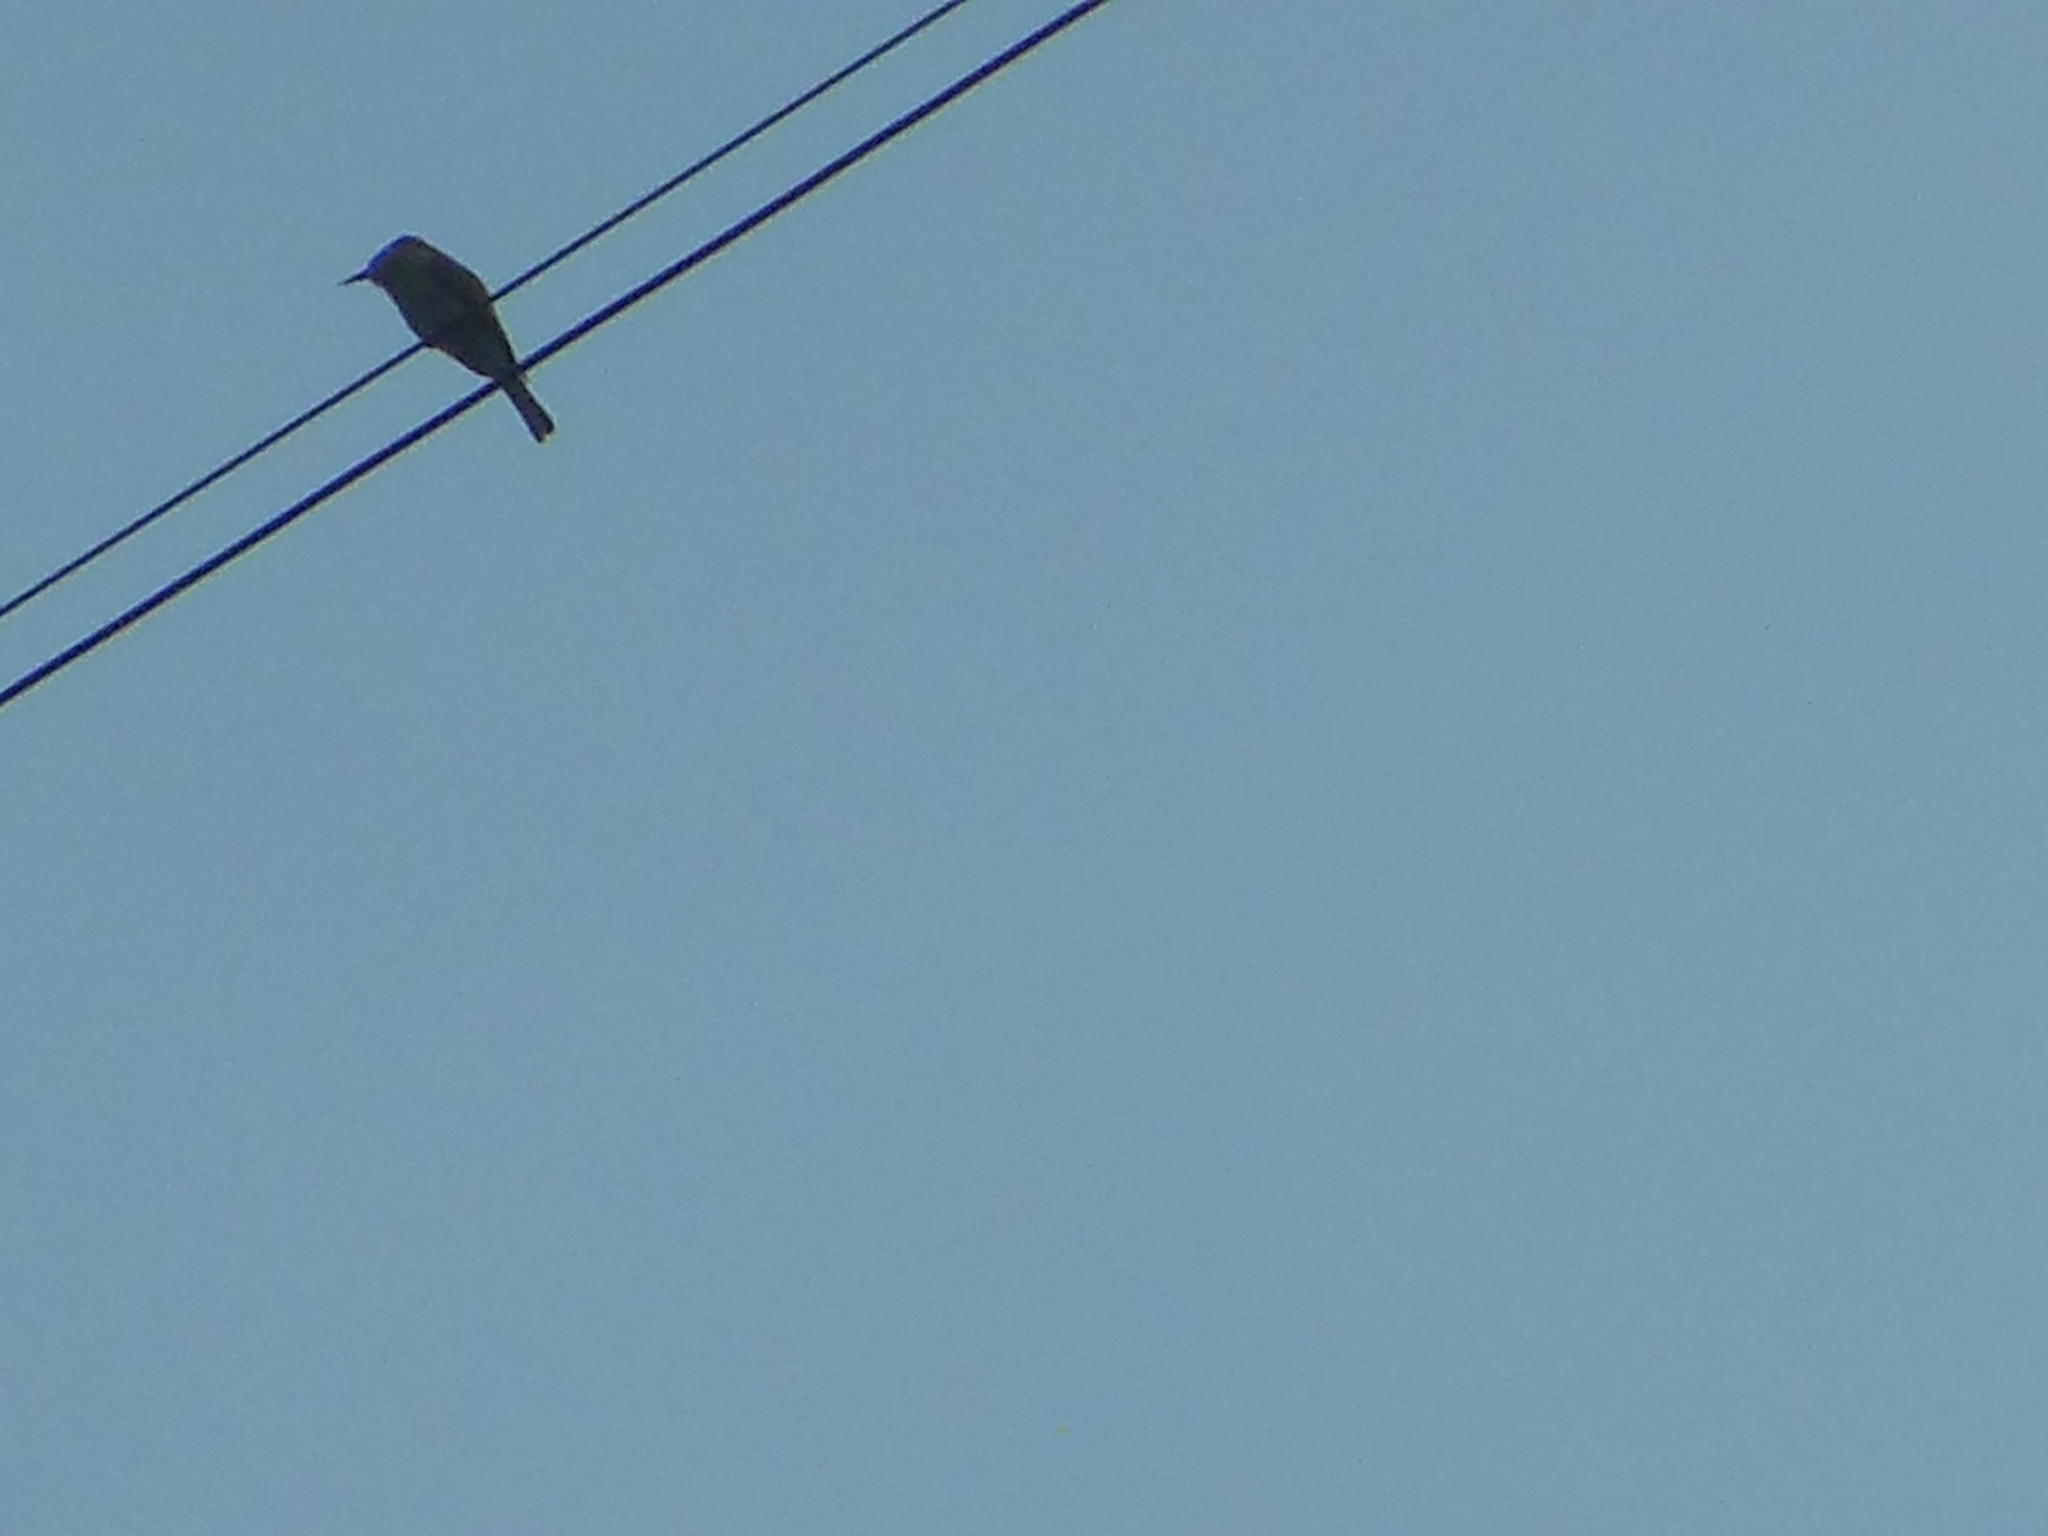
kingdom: Animalia
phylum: Chordata
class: Aves
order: Coraciiformes
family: Meropidae
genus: Merops
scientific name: Merops orientalis
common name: Green bee-eater
